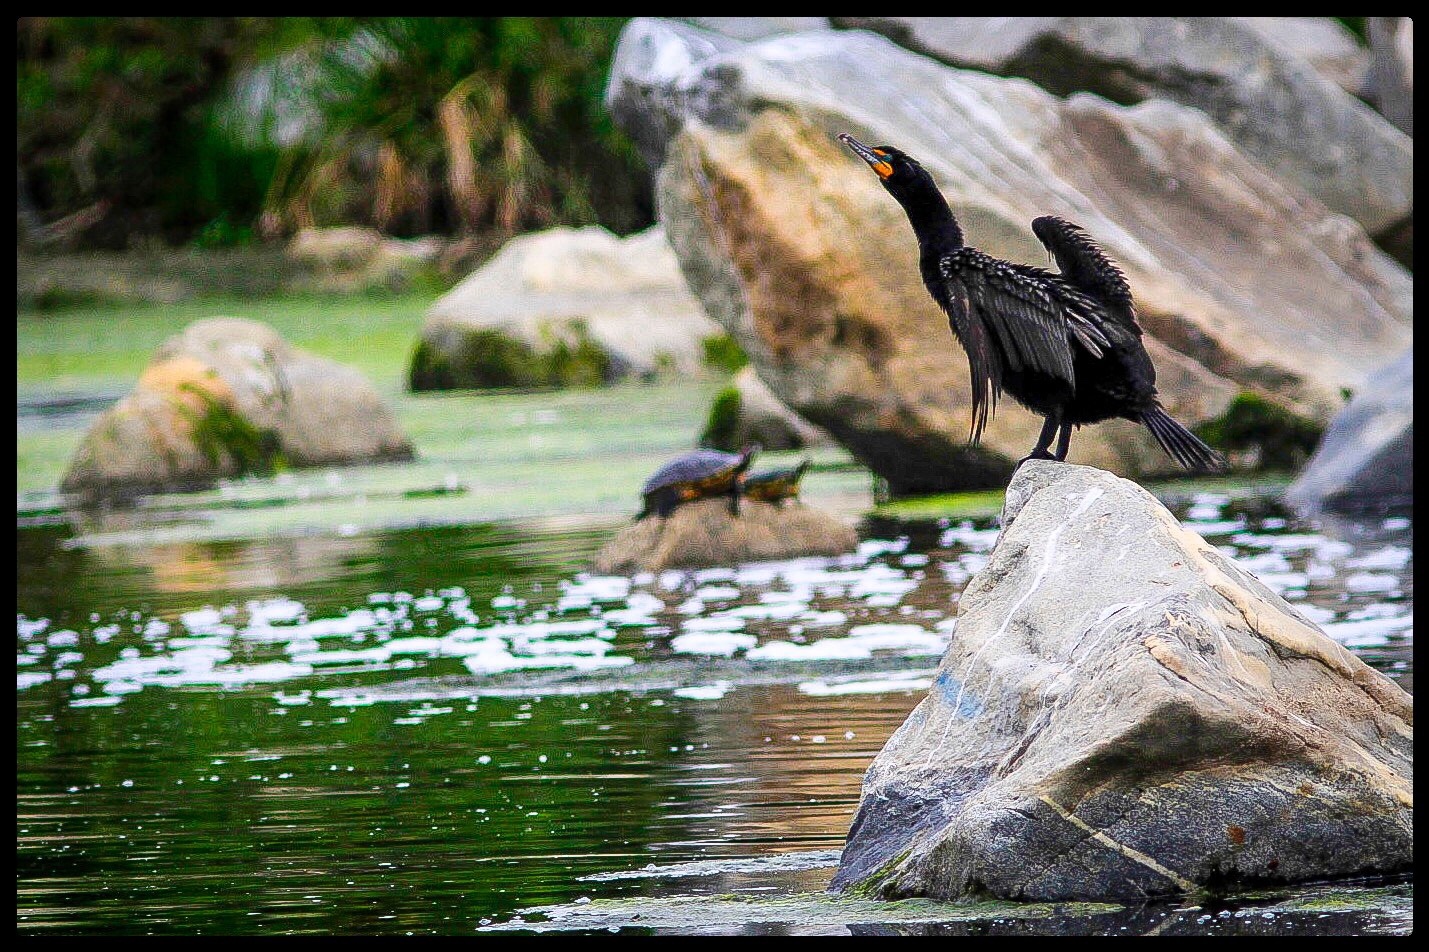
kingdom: Animalia
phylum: Chordata
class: Aves
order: Suliformes
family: Phalacrocoracidae
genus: Phalacrocorax
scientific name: Phalacrocorax auritus
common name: Double-crested cormorant
